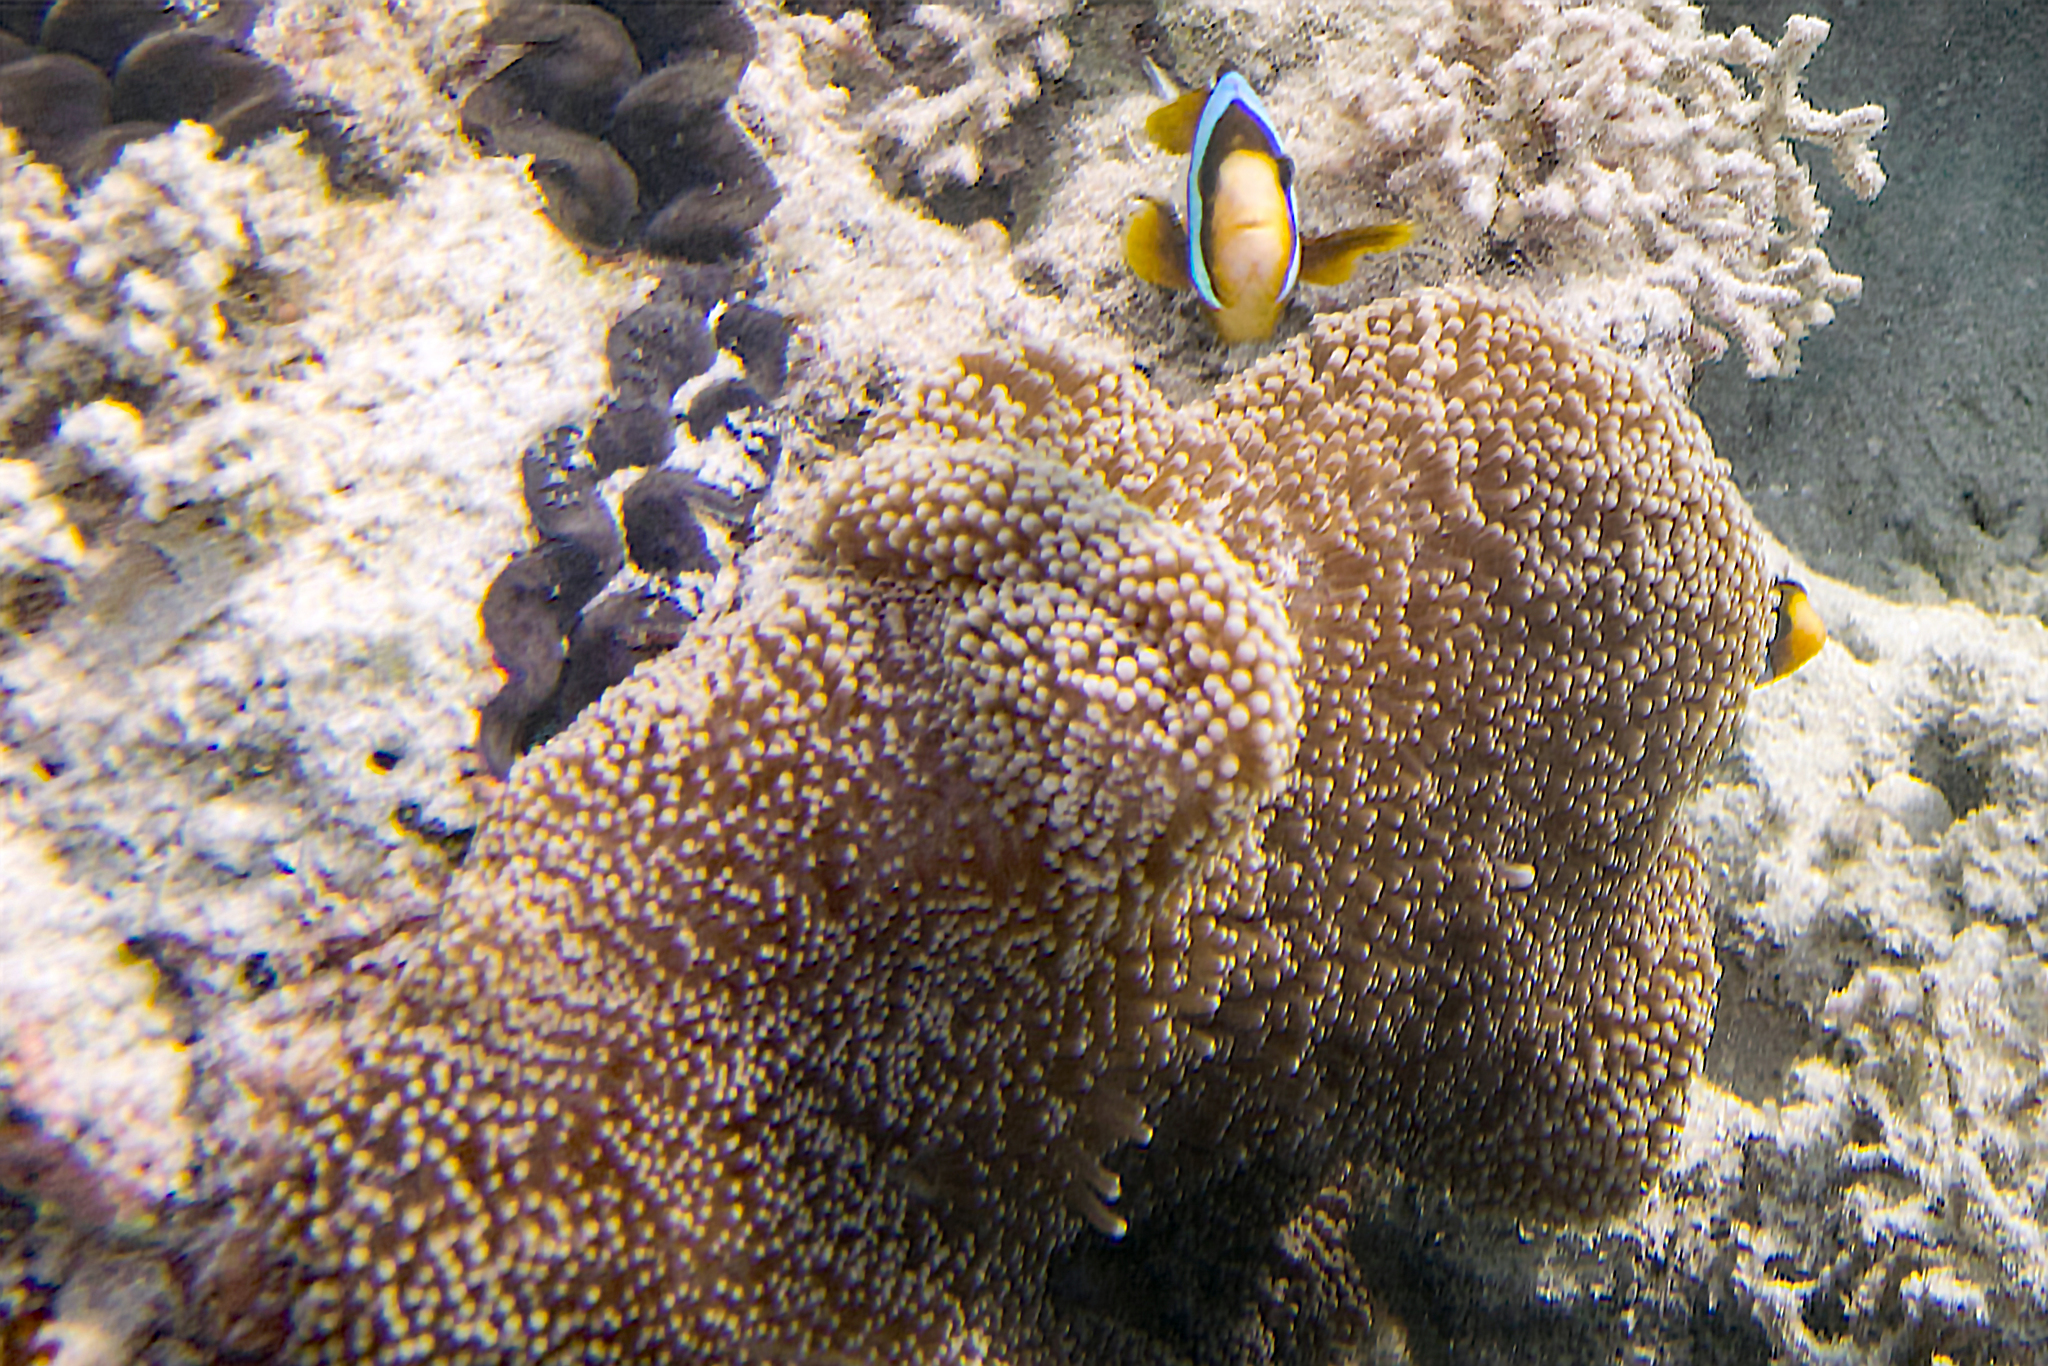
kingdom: Animalia
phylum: Cnidaria
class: Anthozoa
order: Actiniaria
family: Stichodactylidae
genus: Stichodactyla
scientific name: Stichodactyla mertensii
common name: Merten's sea anemone
